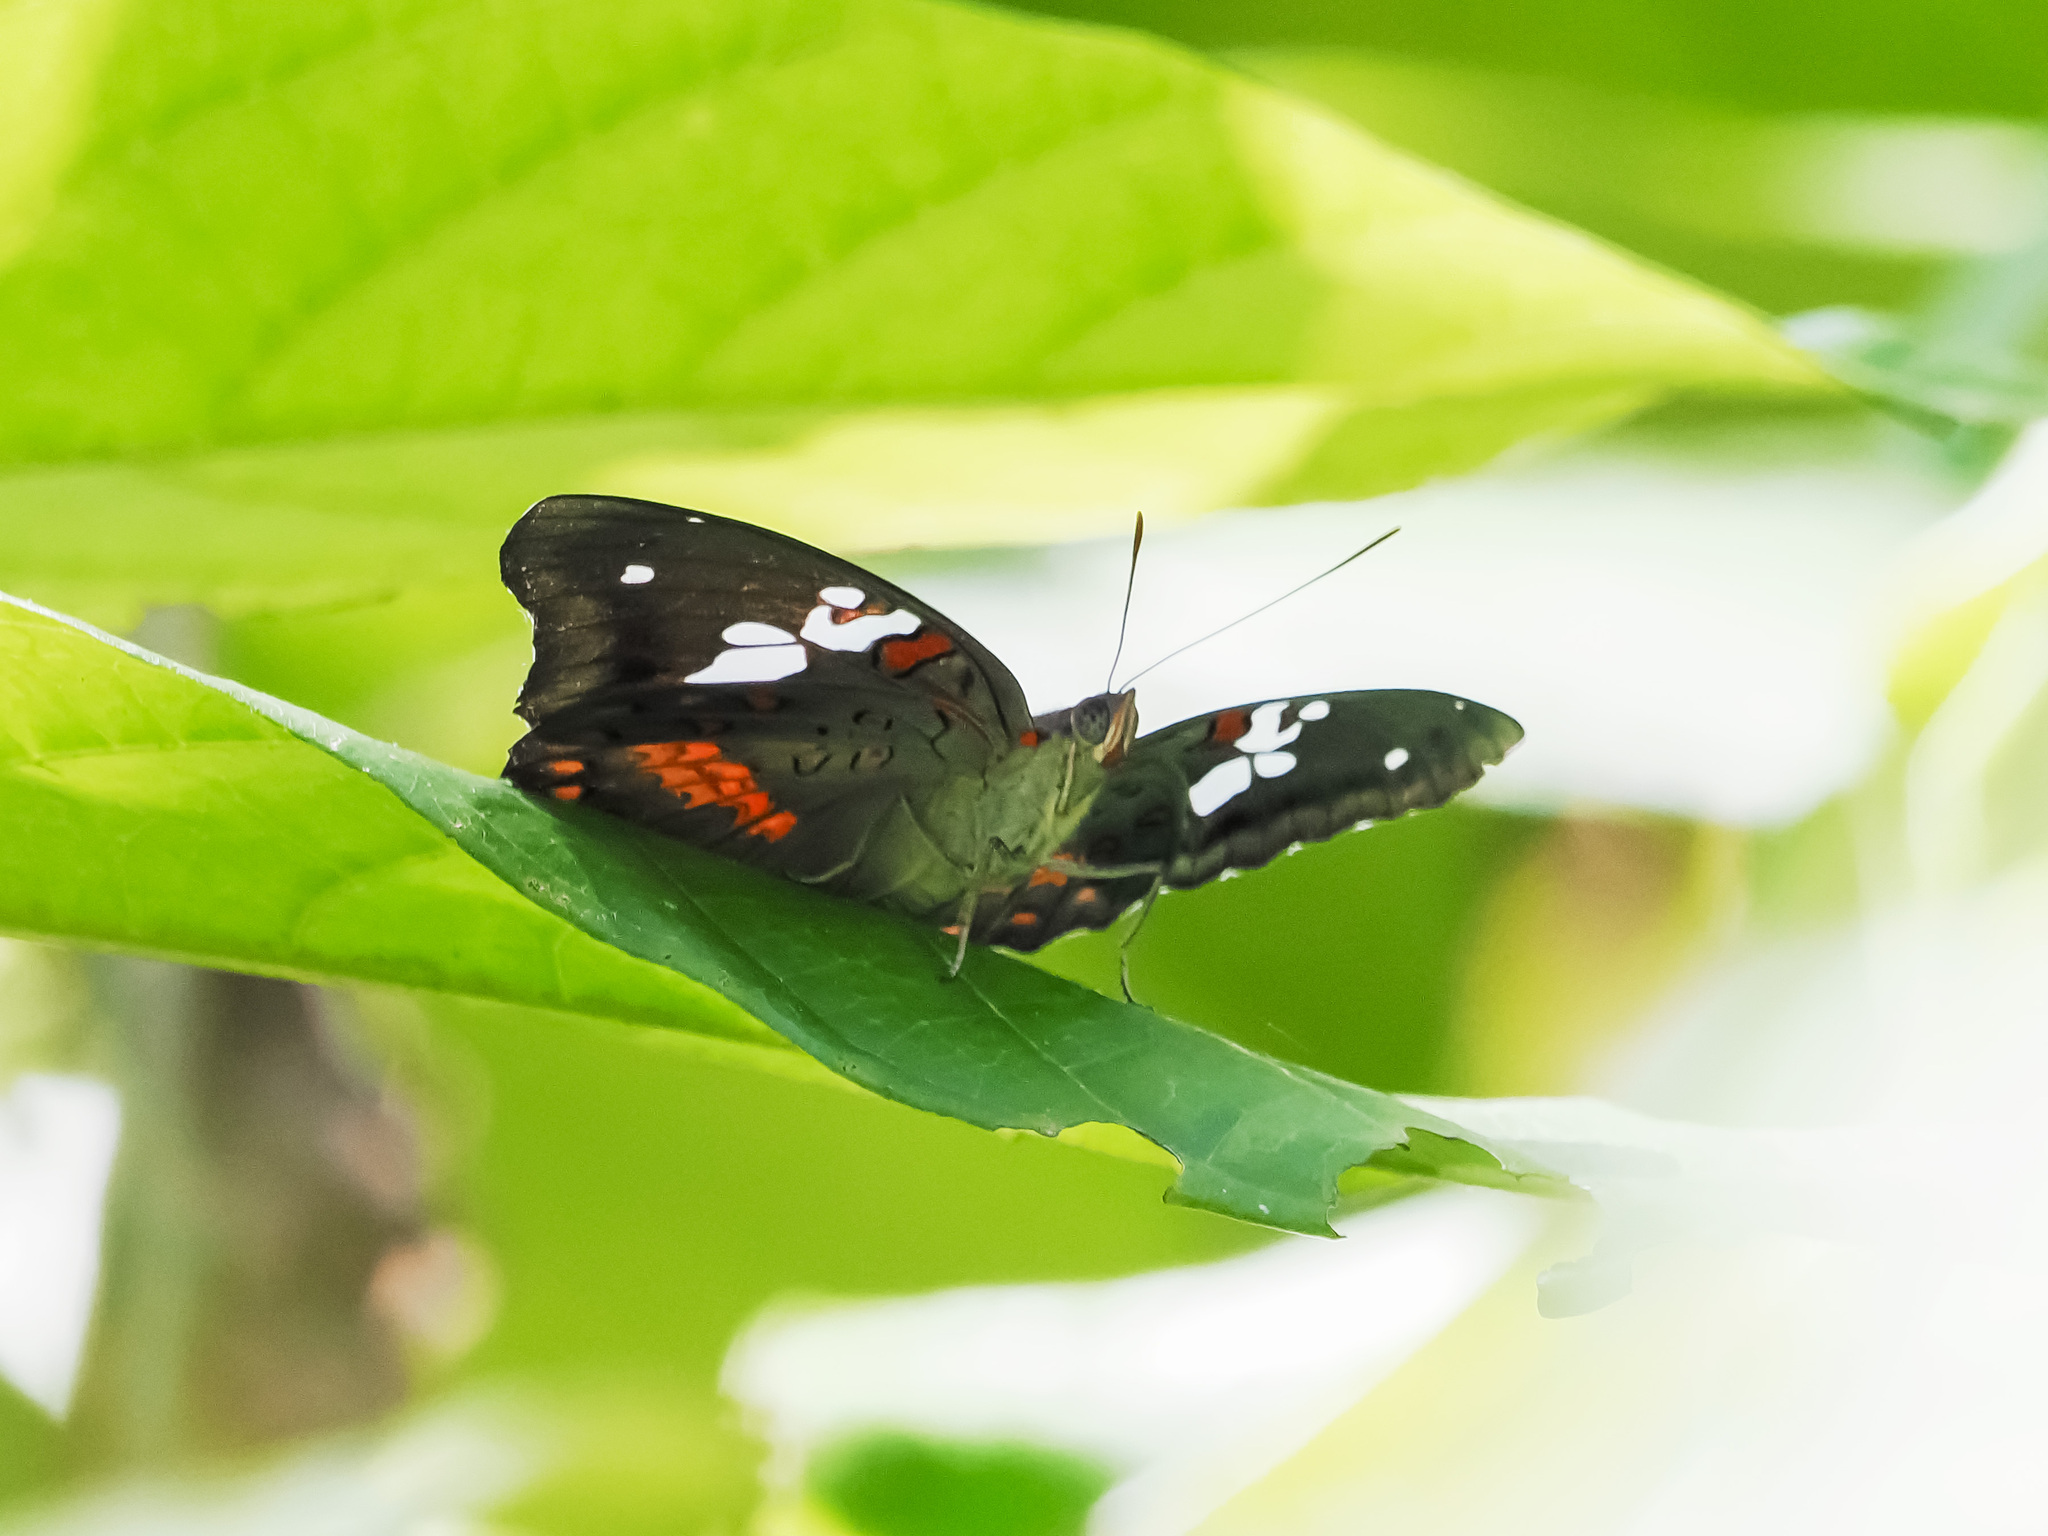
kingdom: Animalia
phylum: Arthropoda
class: Insecta
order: Lepidoptera
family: Nymphalidae
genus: Euthalia
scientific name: Euthalia amanda
